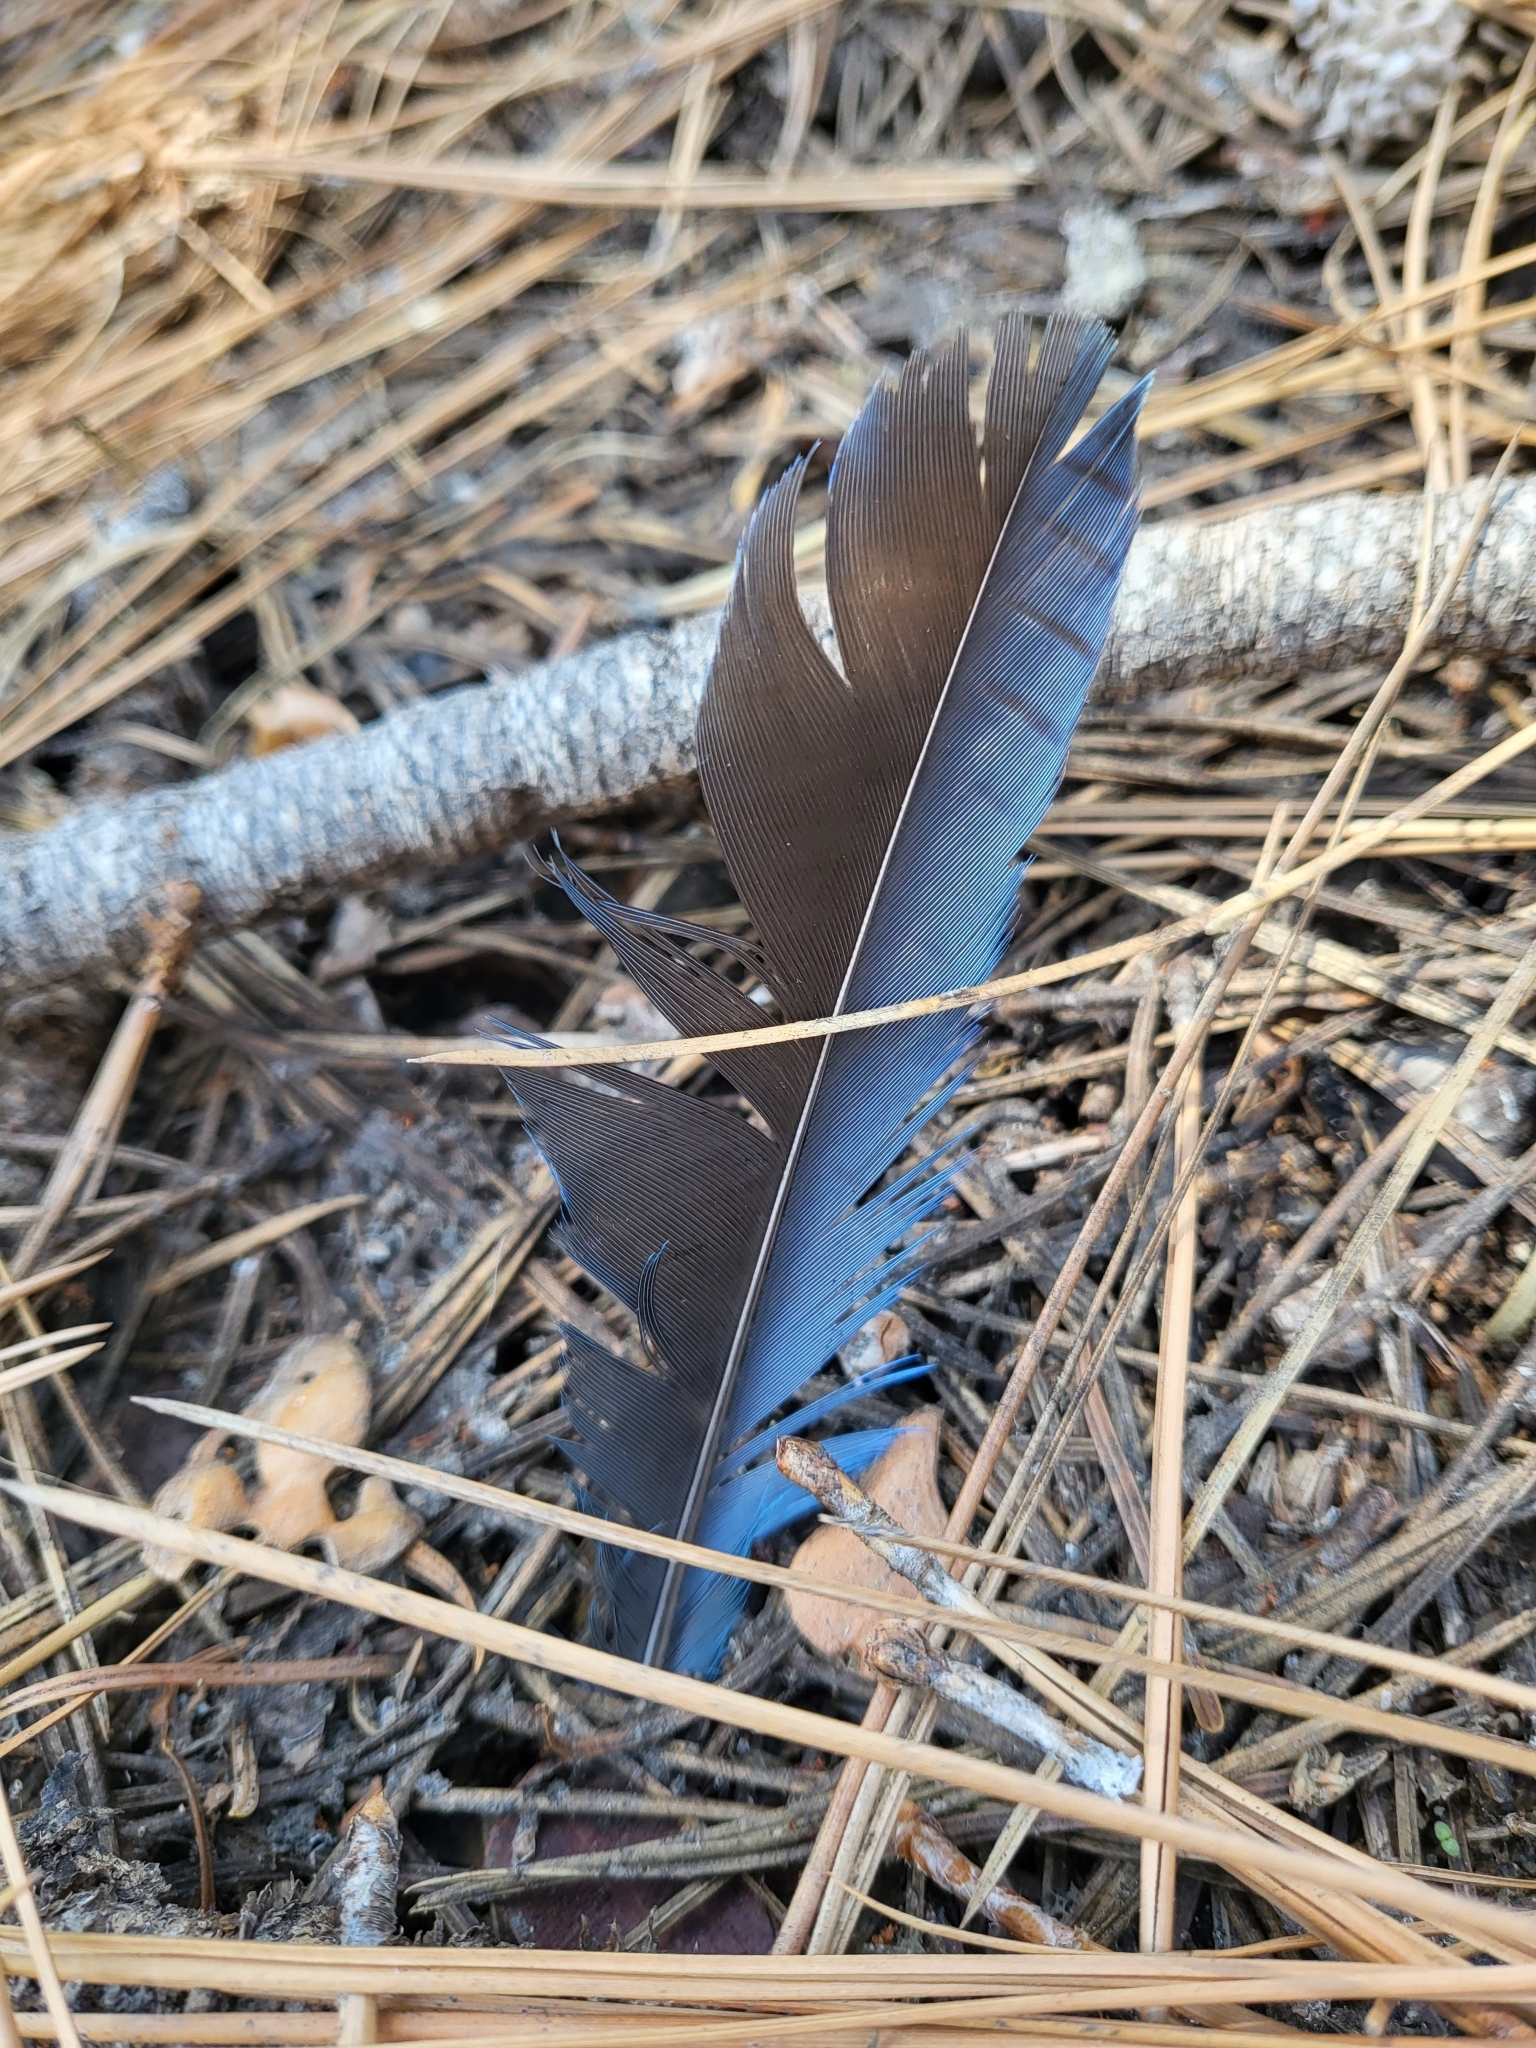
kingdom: Animalia
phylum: Chordata
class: Aves
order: Passeriformes
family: Corvidae
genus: Cyanocitta
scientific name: Cyanocitta stelleri
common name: Steller's jay
